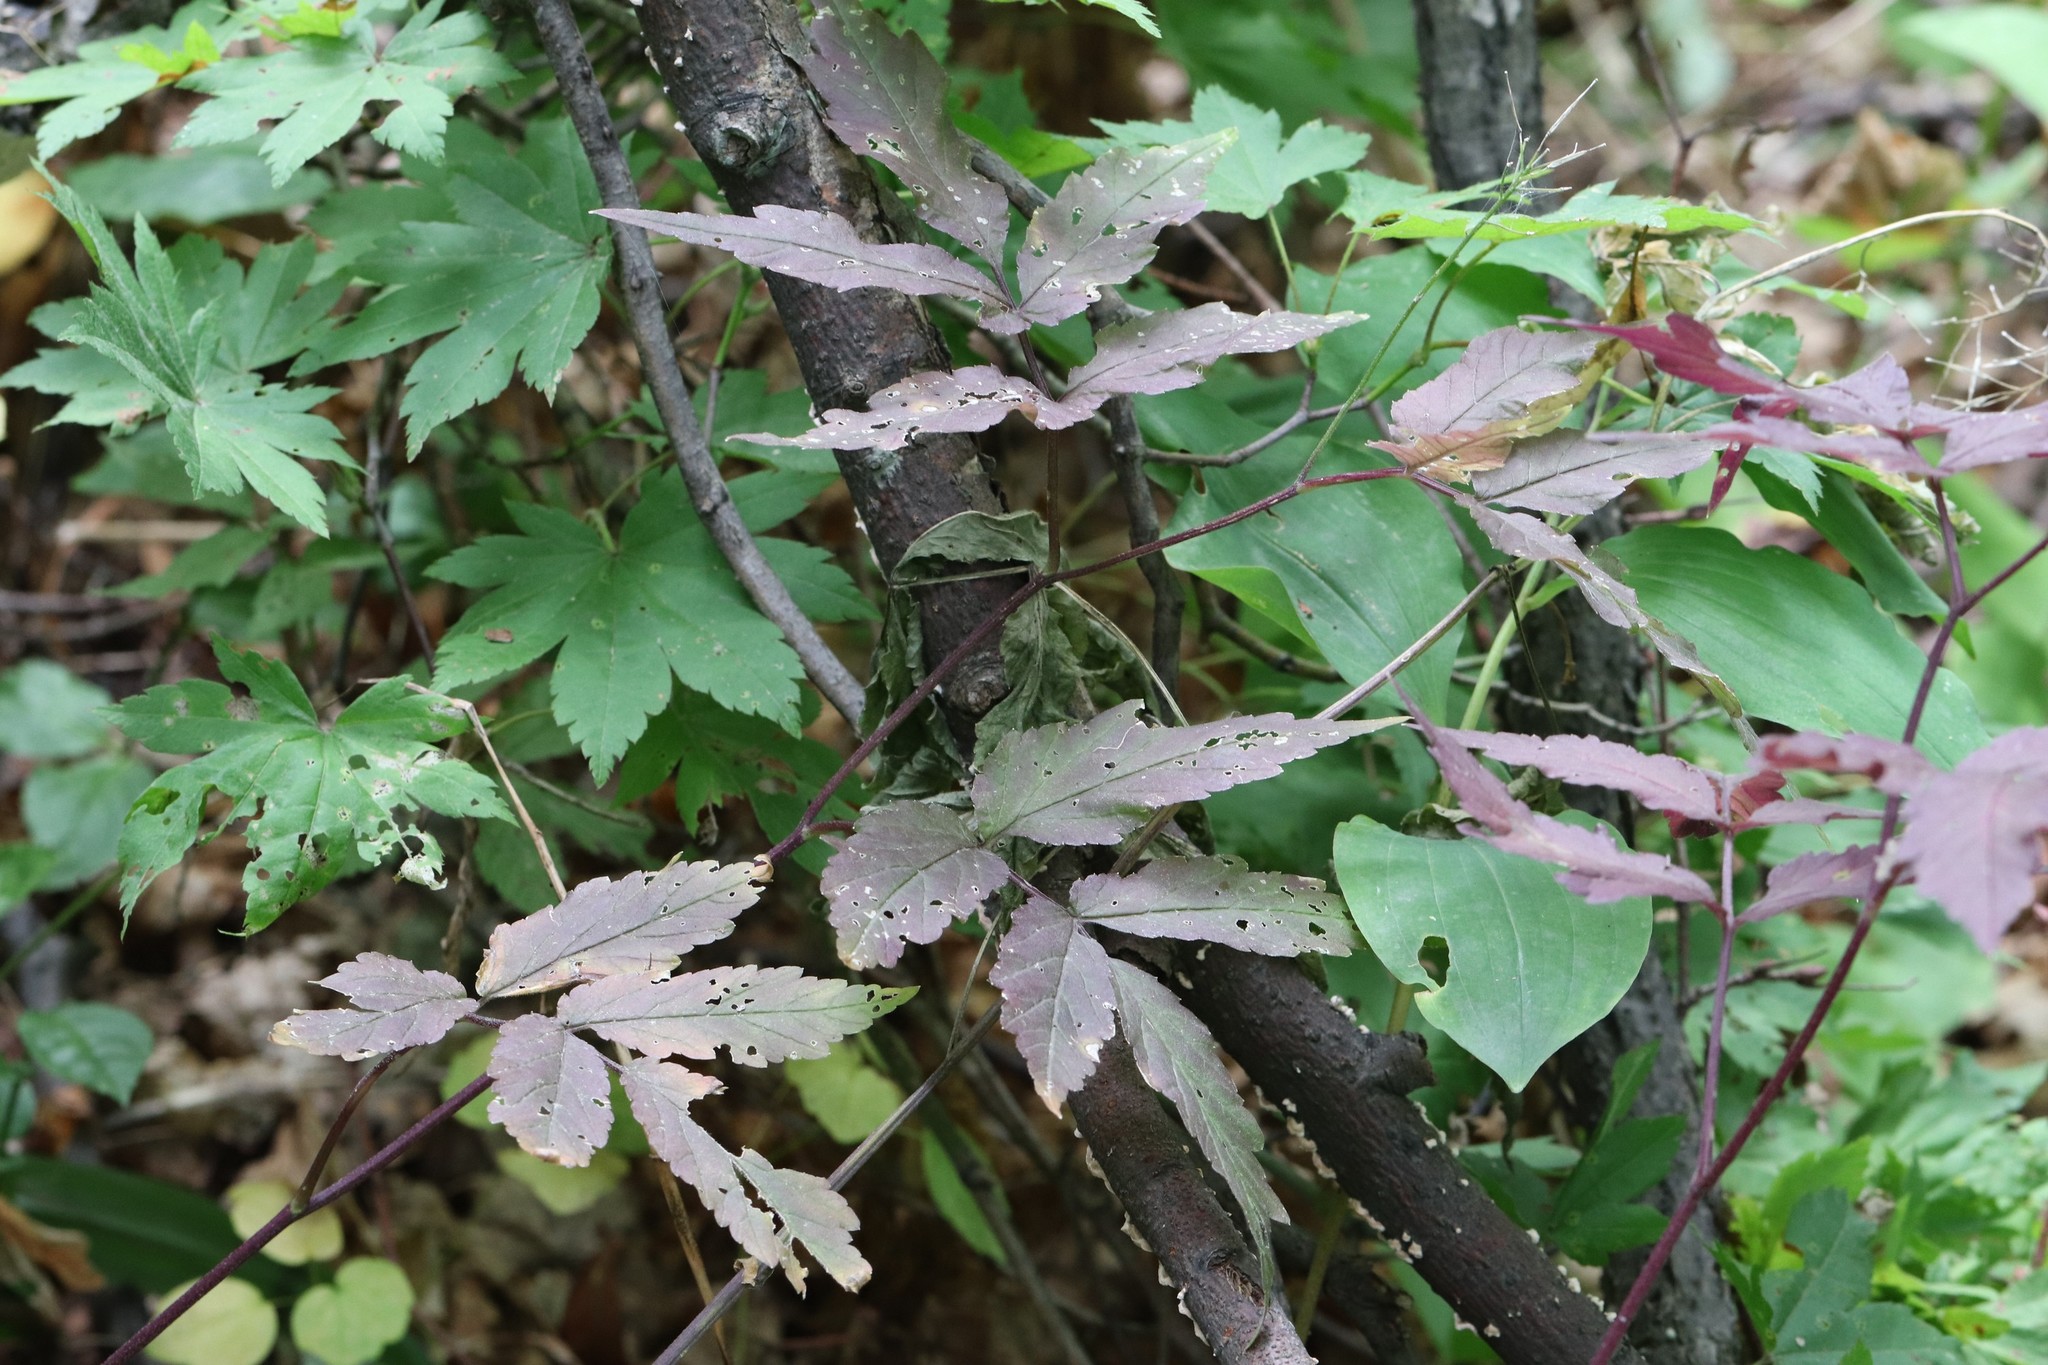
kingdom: Plantae
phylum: Tracheophyta
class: Magnoliopsida
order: Brassicales
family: Brassicaceae
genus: Cardamine
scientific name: Cardamine leucantha
